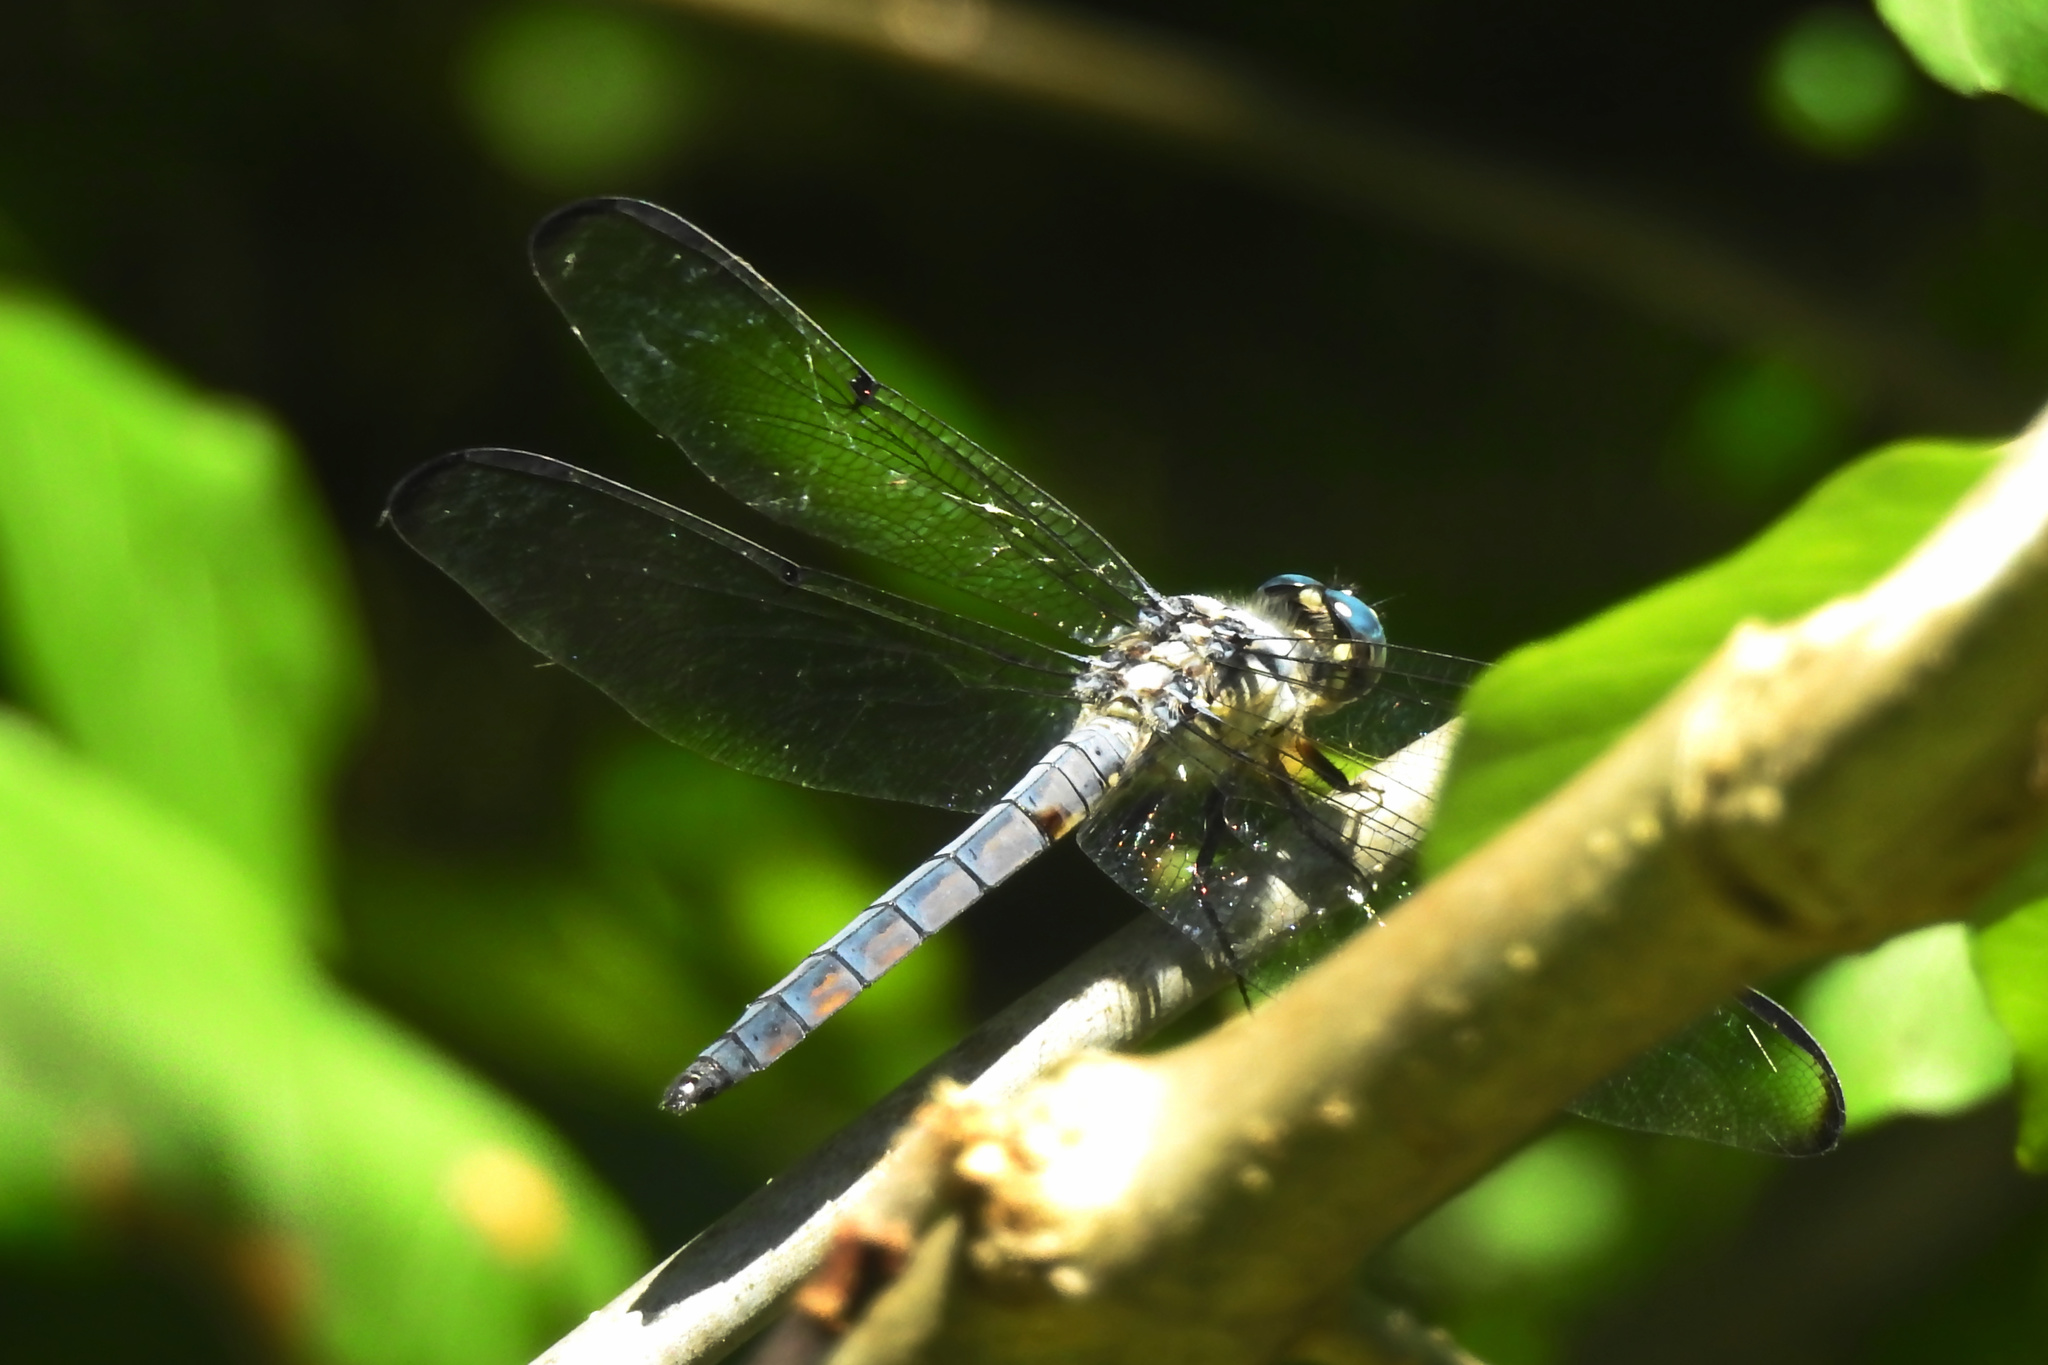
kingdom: Animalia
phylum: Arthropoda
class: Insecta
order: Odonata
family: Libellulidae
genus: Libellula
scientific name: Libellula vibrans
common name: Great blue skimmer
